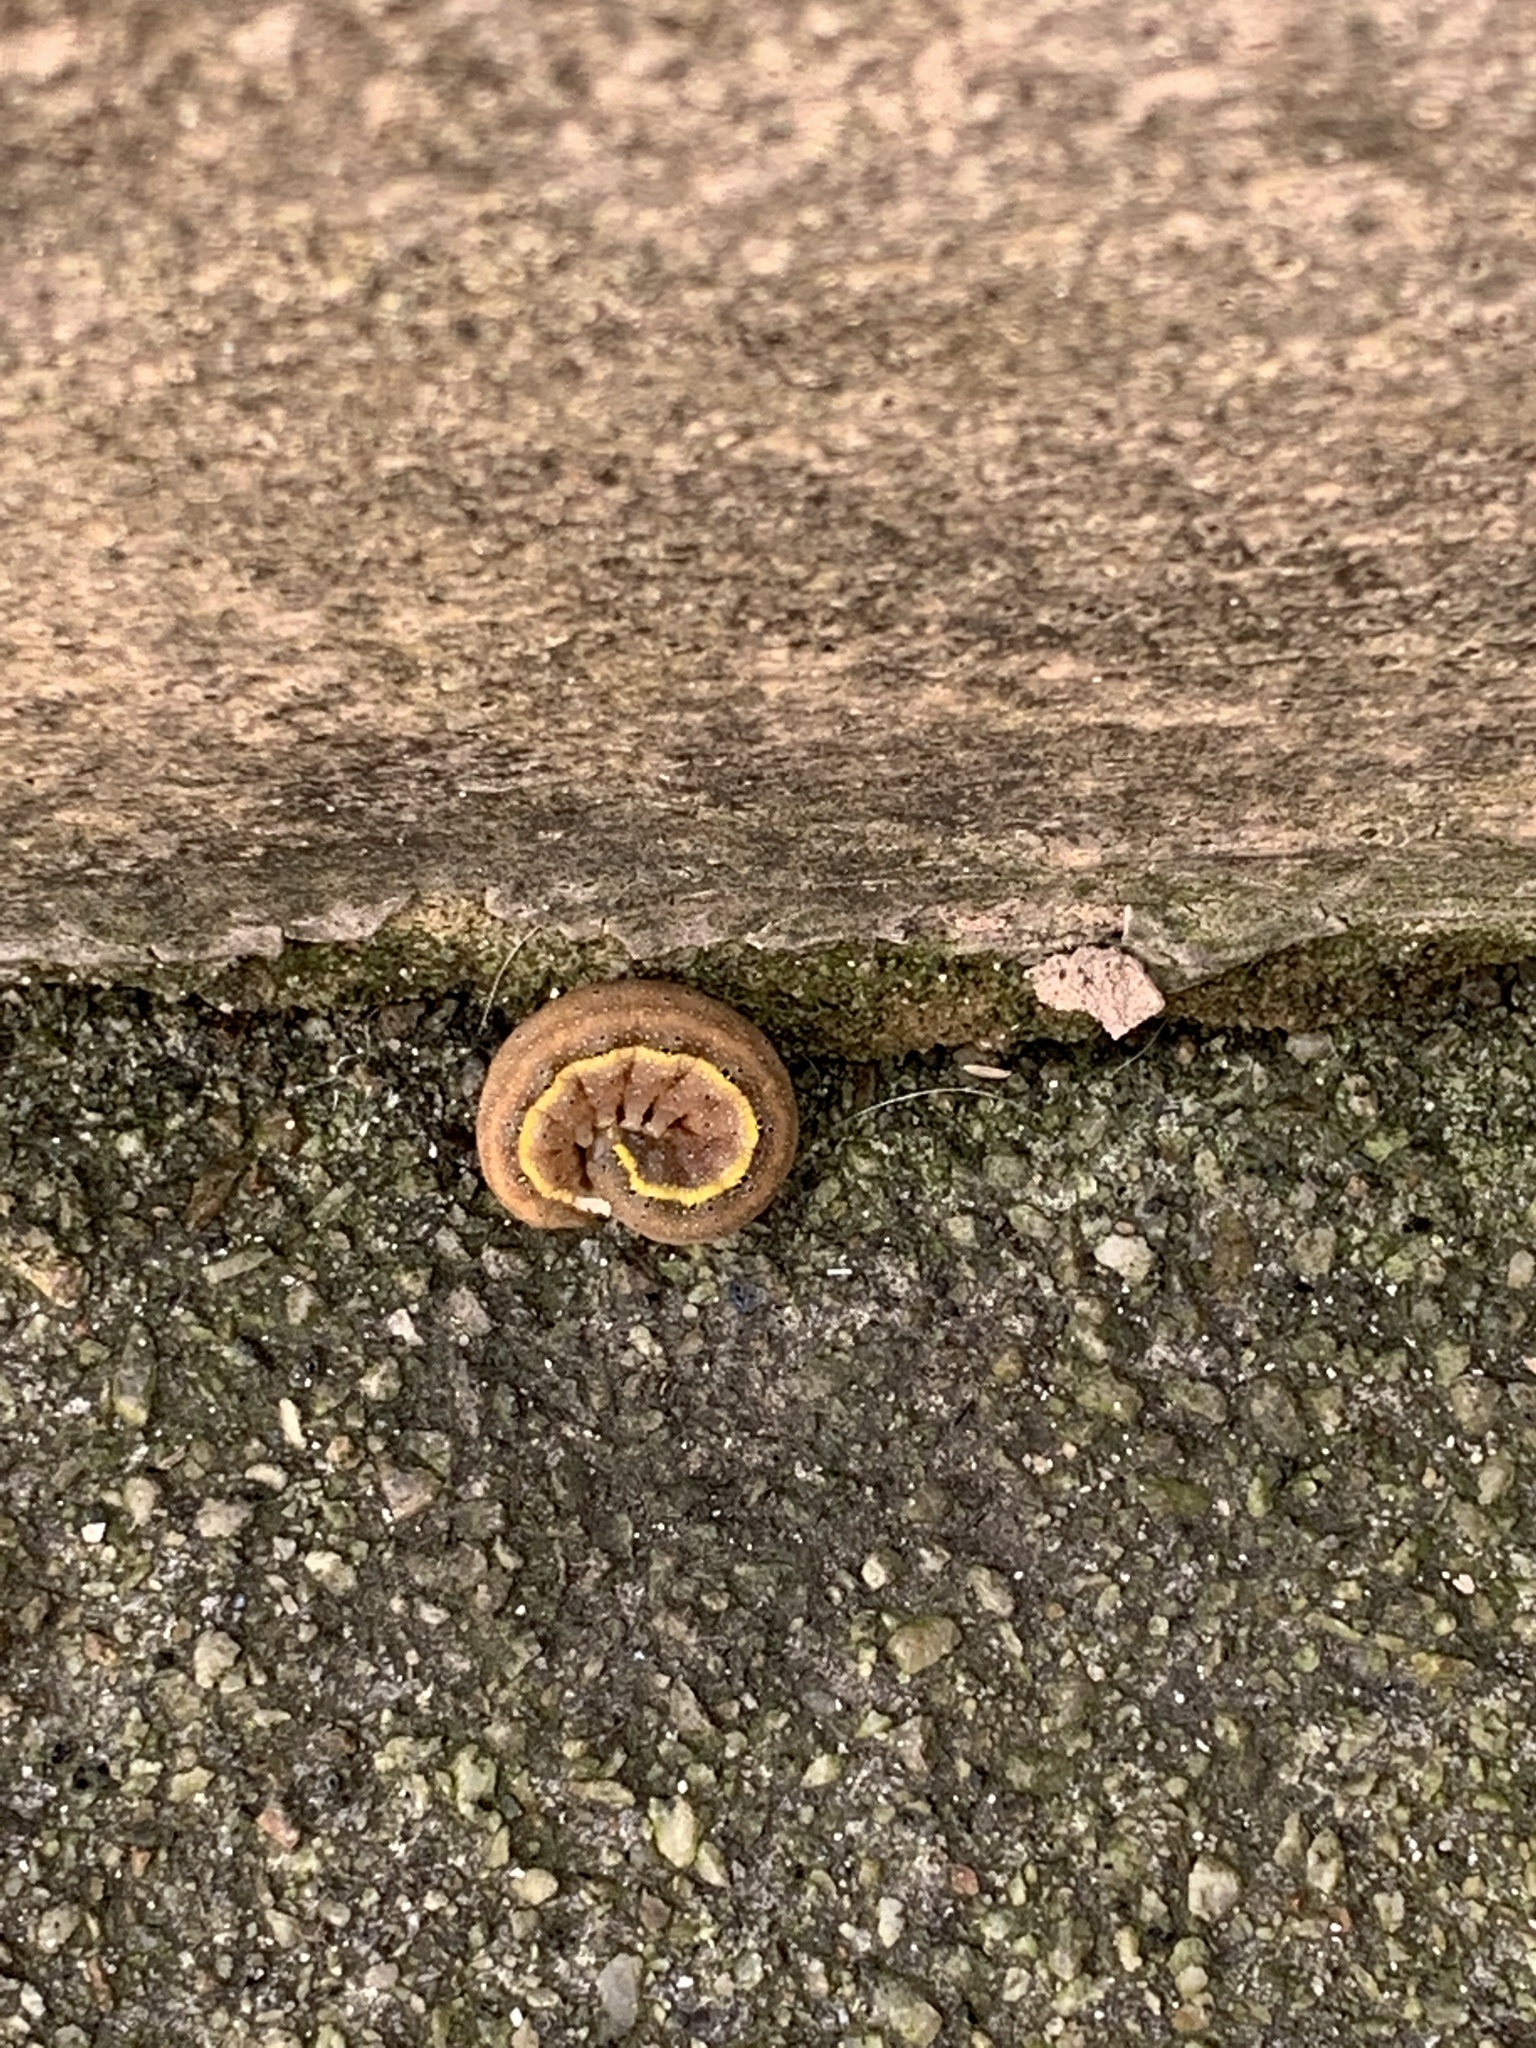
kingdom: Animalia
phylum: Arthropoda
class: Insecta
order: Lepidoptera
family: Noctuidae
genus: Lacanobia
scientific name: Lacanobia oleracea
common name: Bright-line brown-eye
